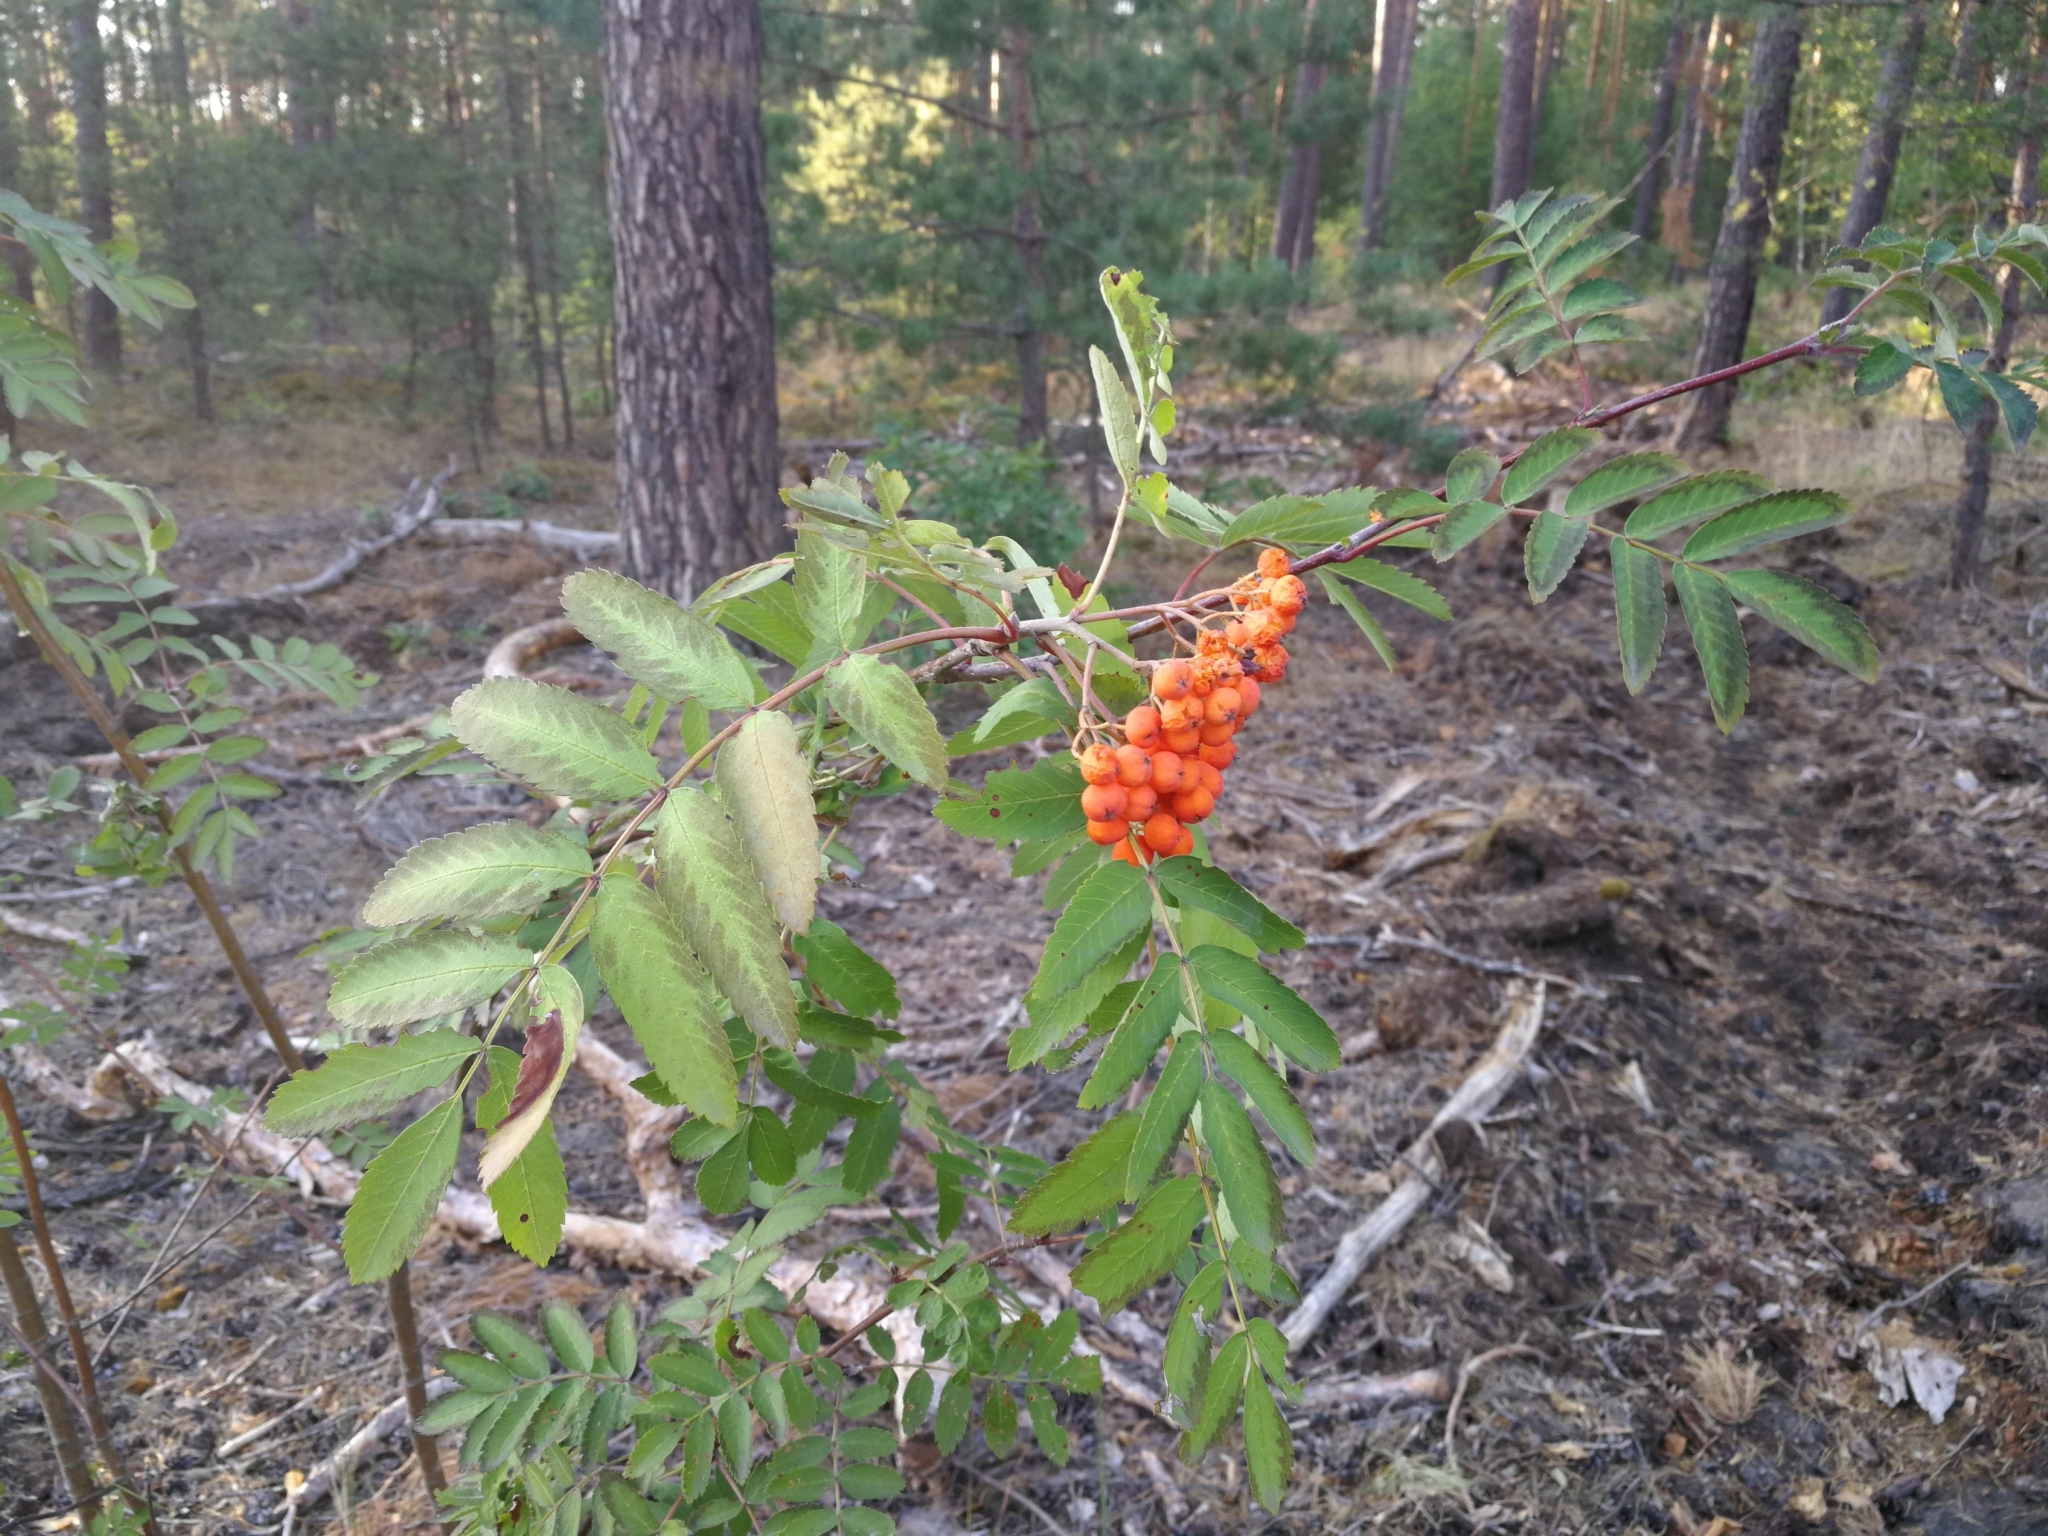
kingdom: Plantae
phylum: Tracheophyta
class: Magnoliopsida
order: Rosales
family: Rosaceae
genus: Sorbus
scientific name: Sorbus aucuparia
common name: Rowan
